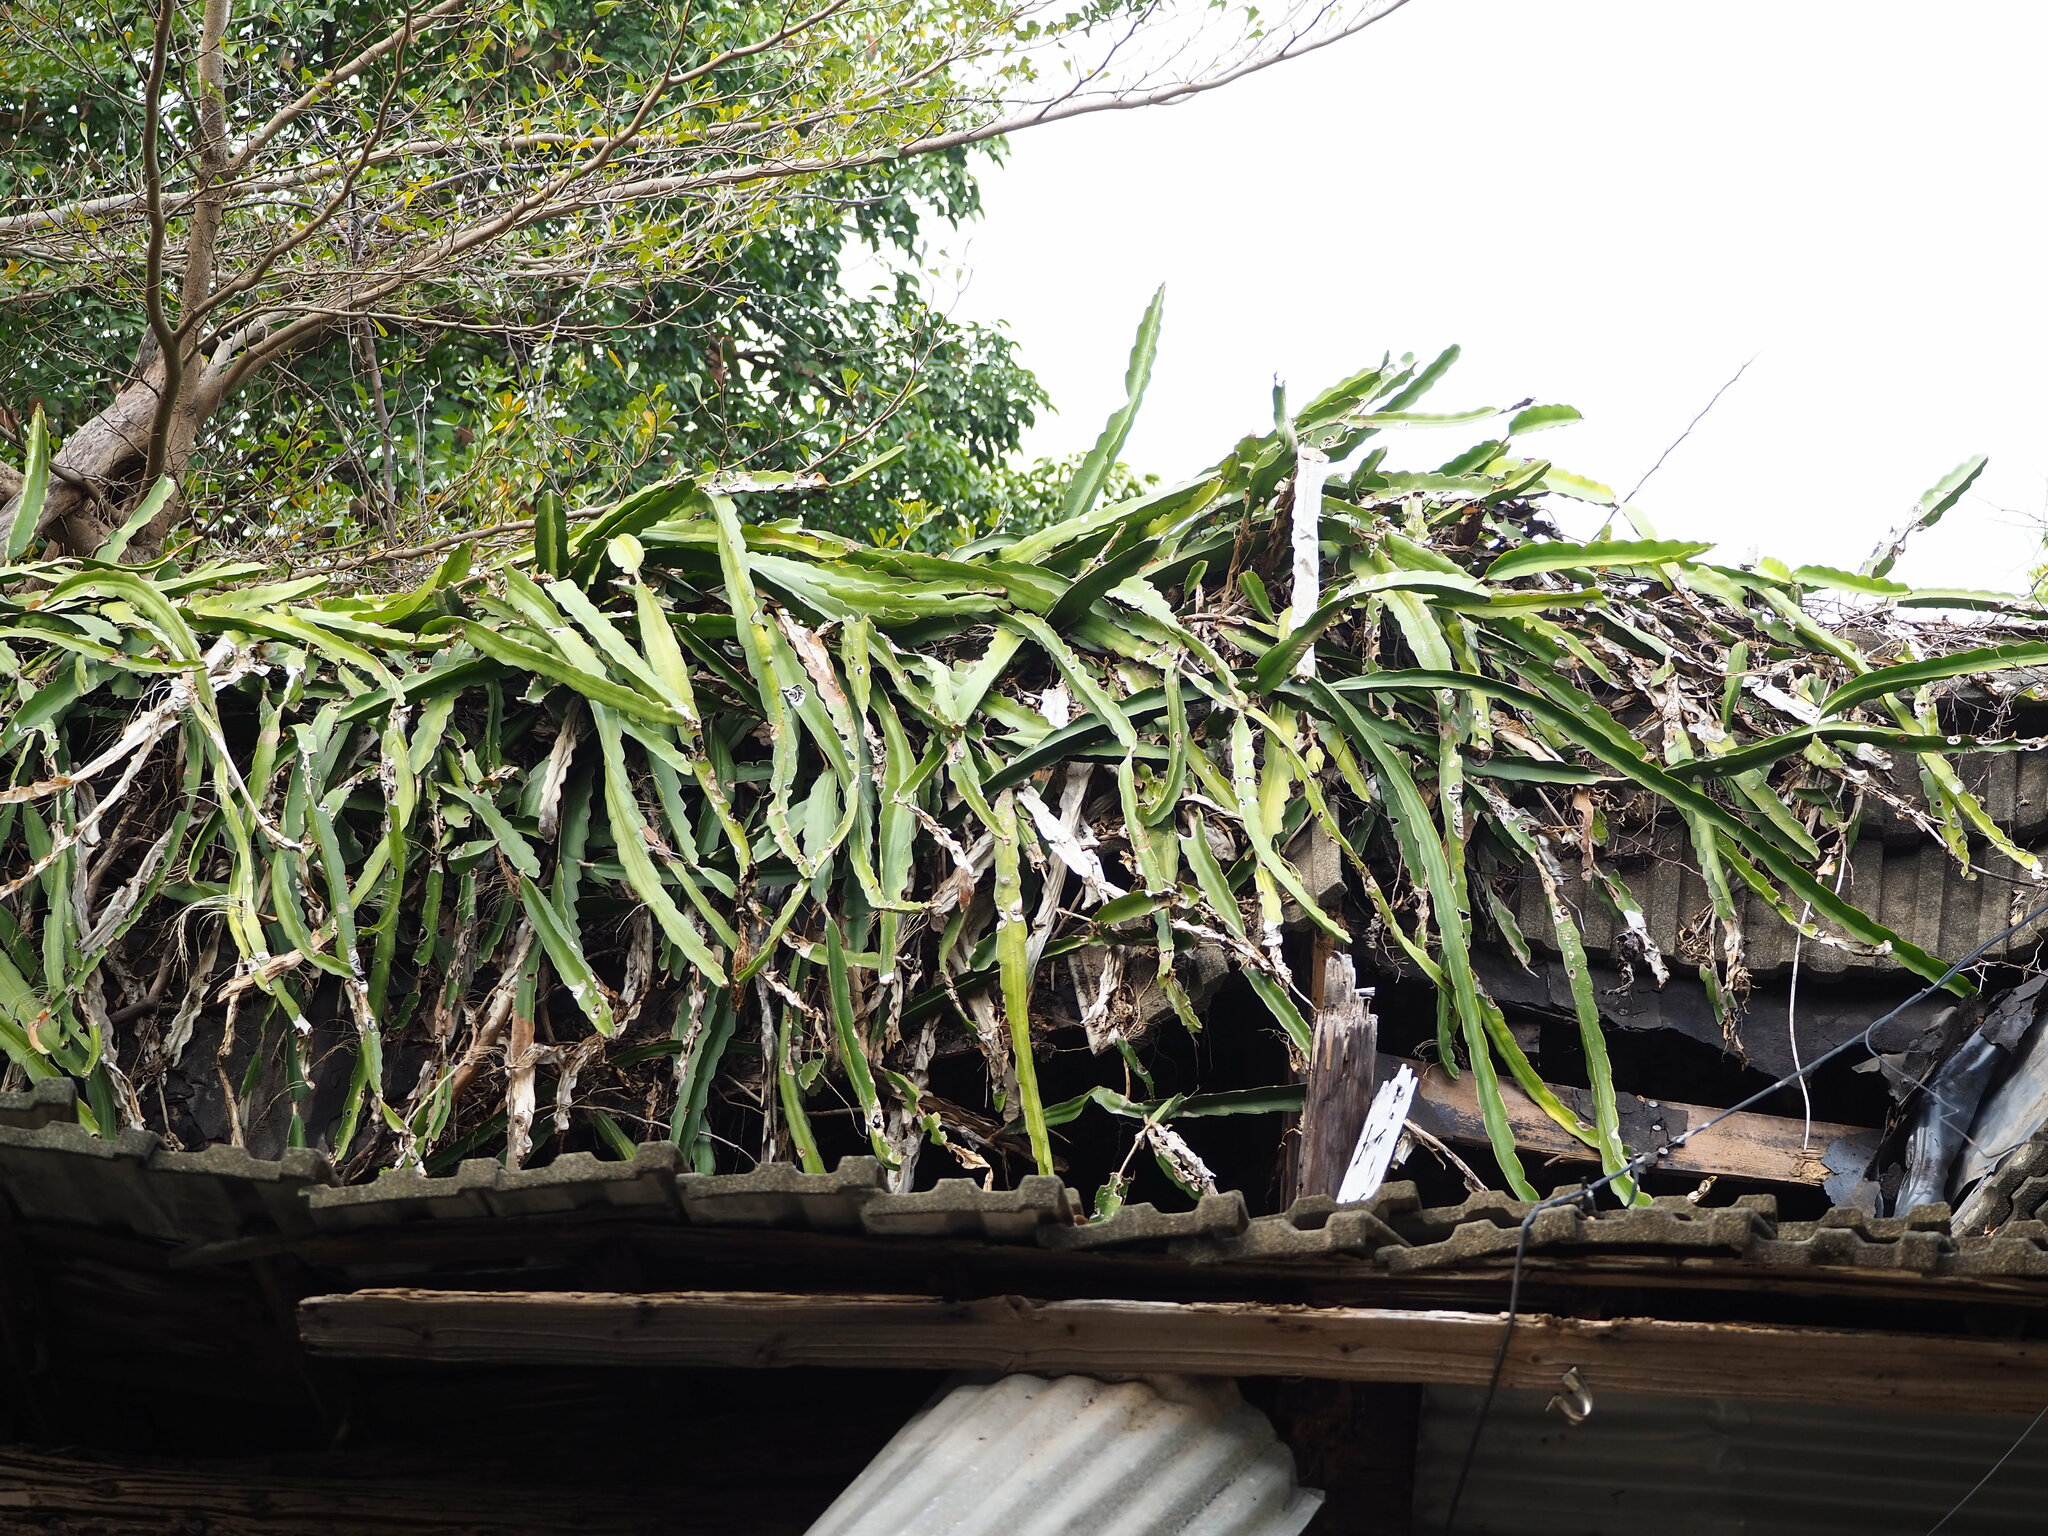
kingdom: Plantae
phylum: Tracheophyta
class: Magnoliopsida
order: Caryophyllales
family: Cactaceae
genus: Selenicereus
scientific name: Selenicereus undatus
